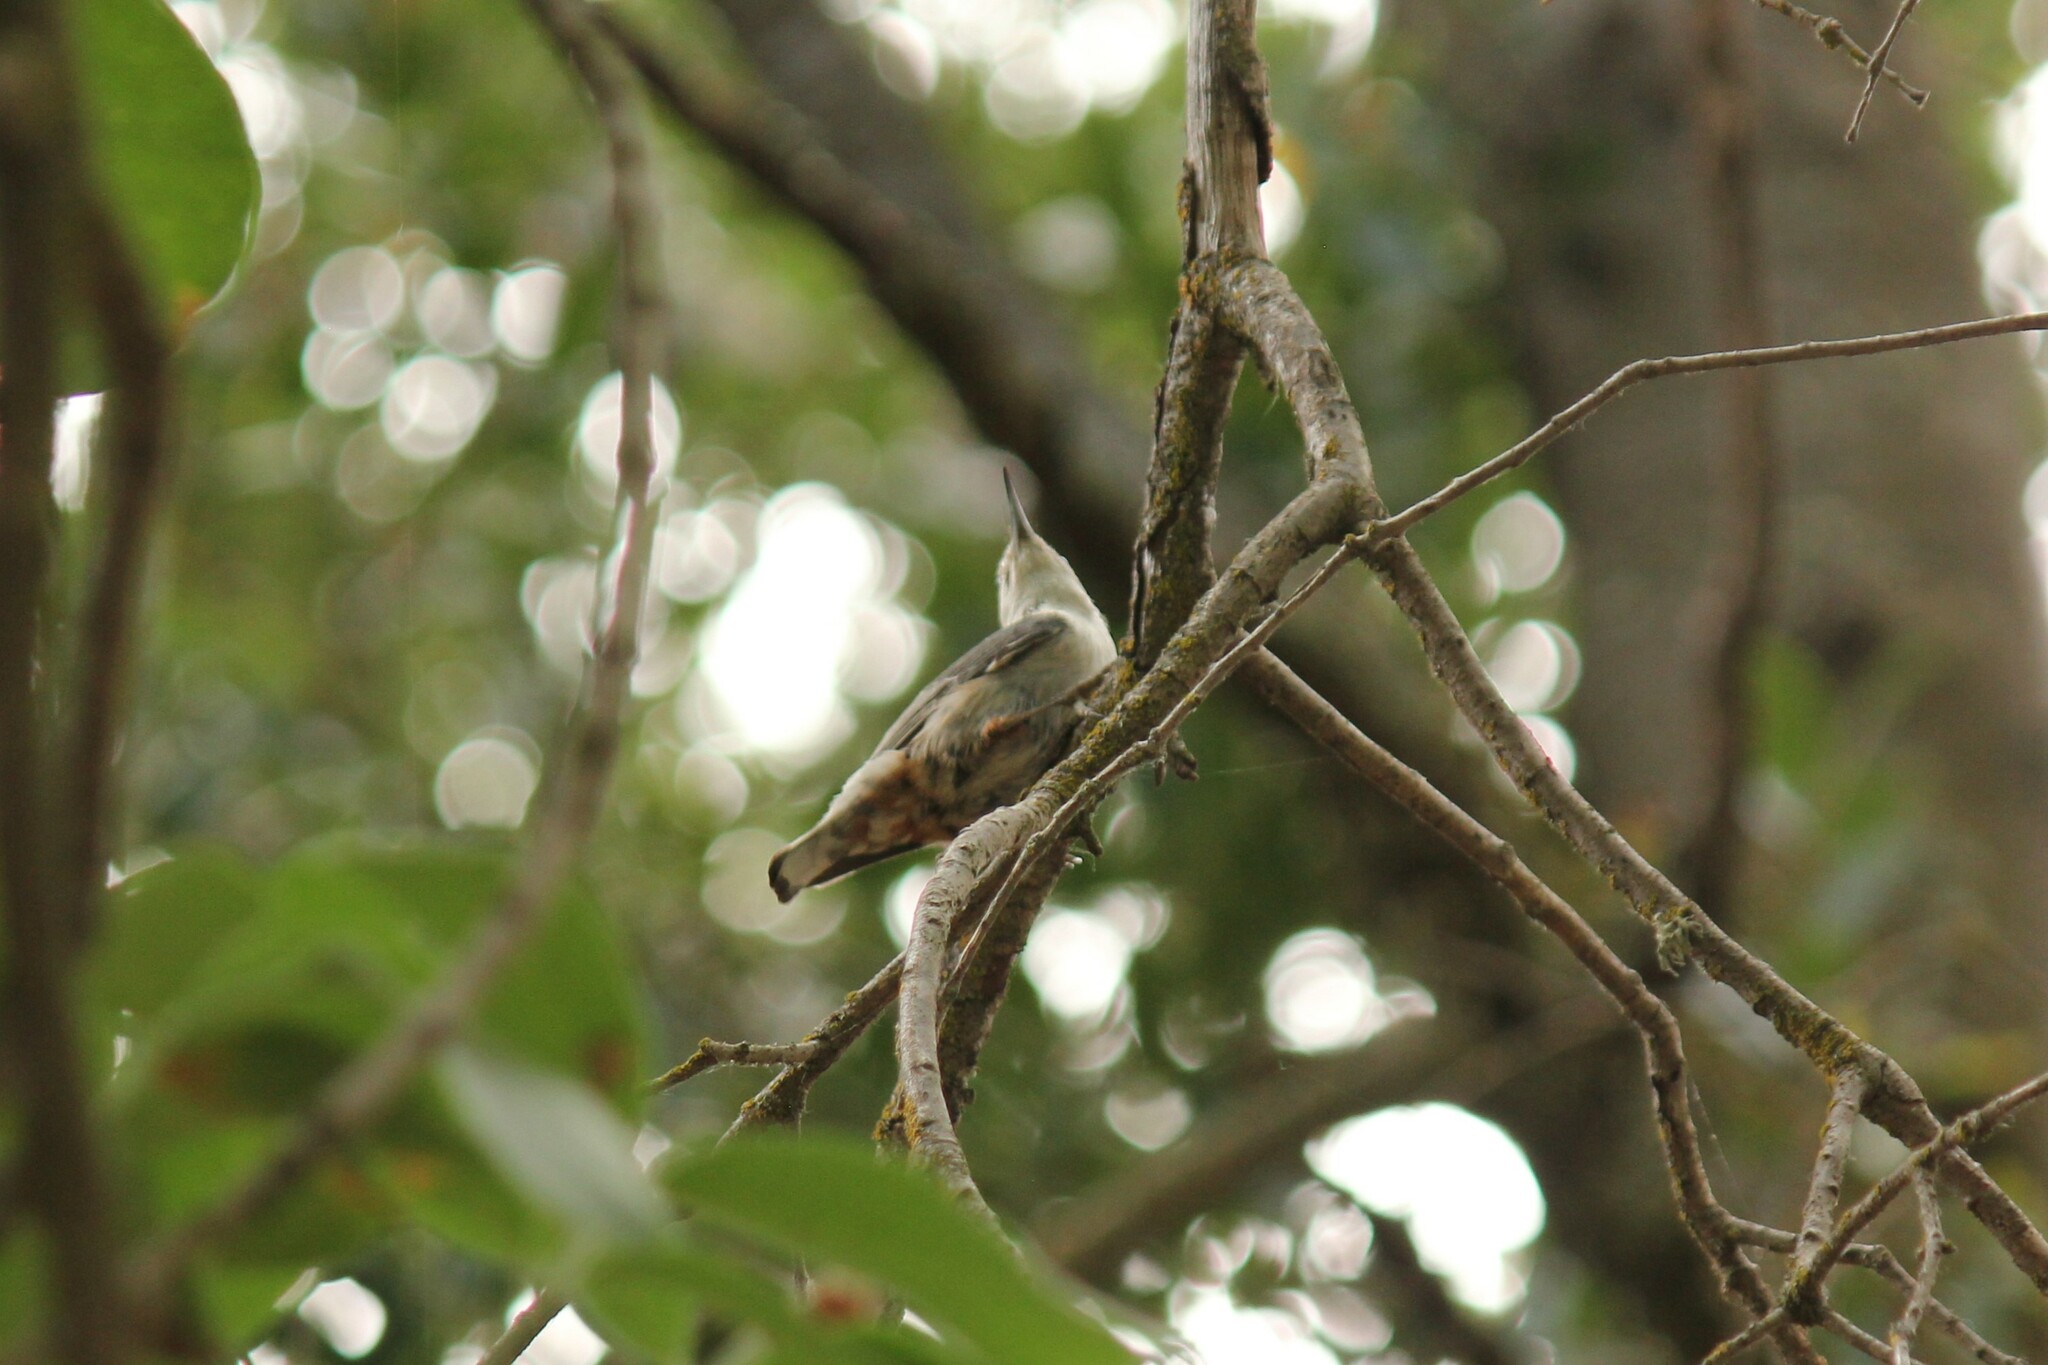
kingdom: Animalia
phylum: Chordata
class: Aves
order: Passeriformes
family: Sittidae
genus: Sitta
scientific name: Sitta carolinensis
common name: White-breasted nuthatch
